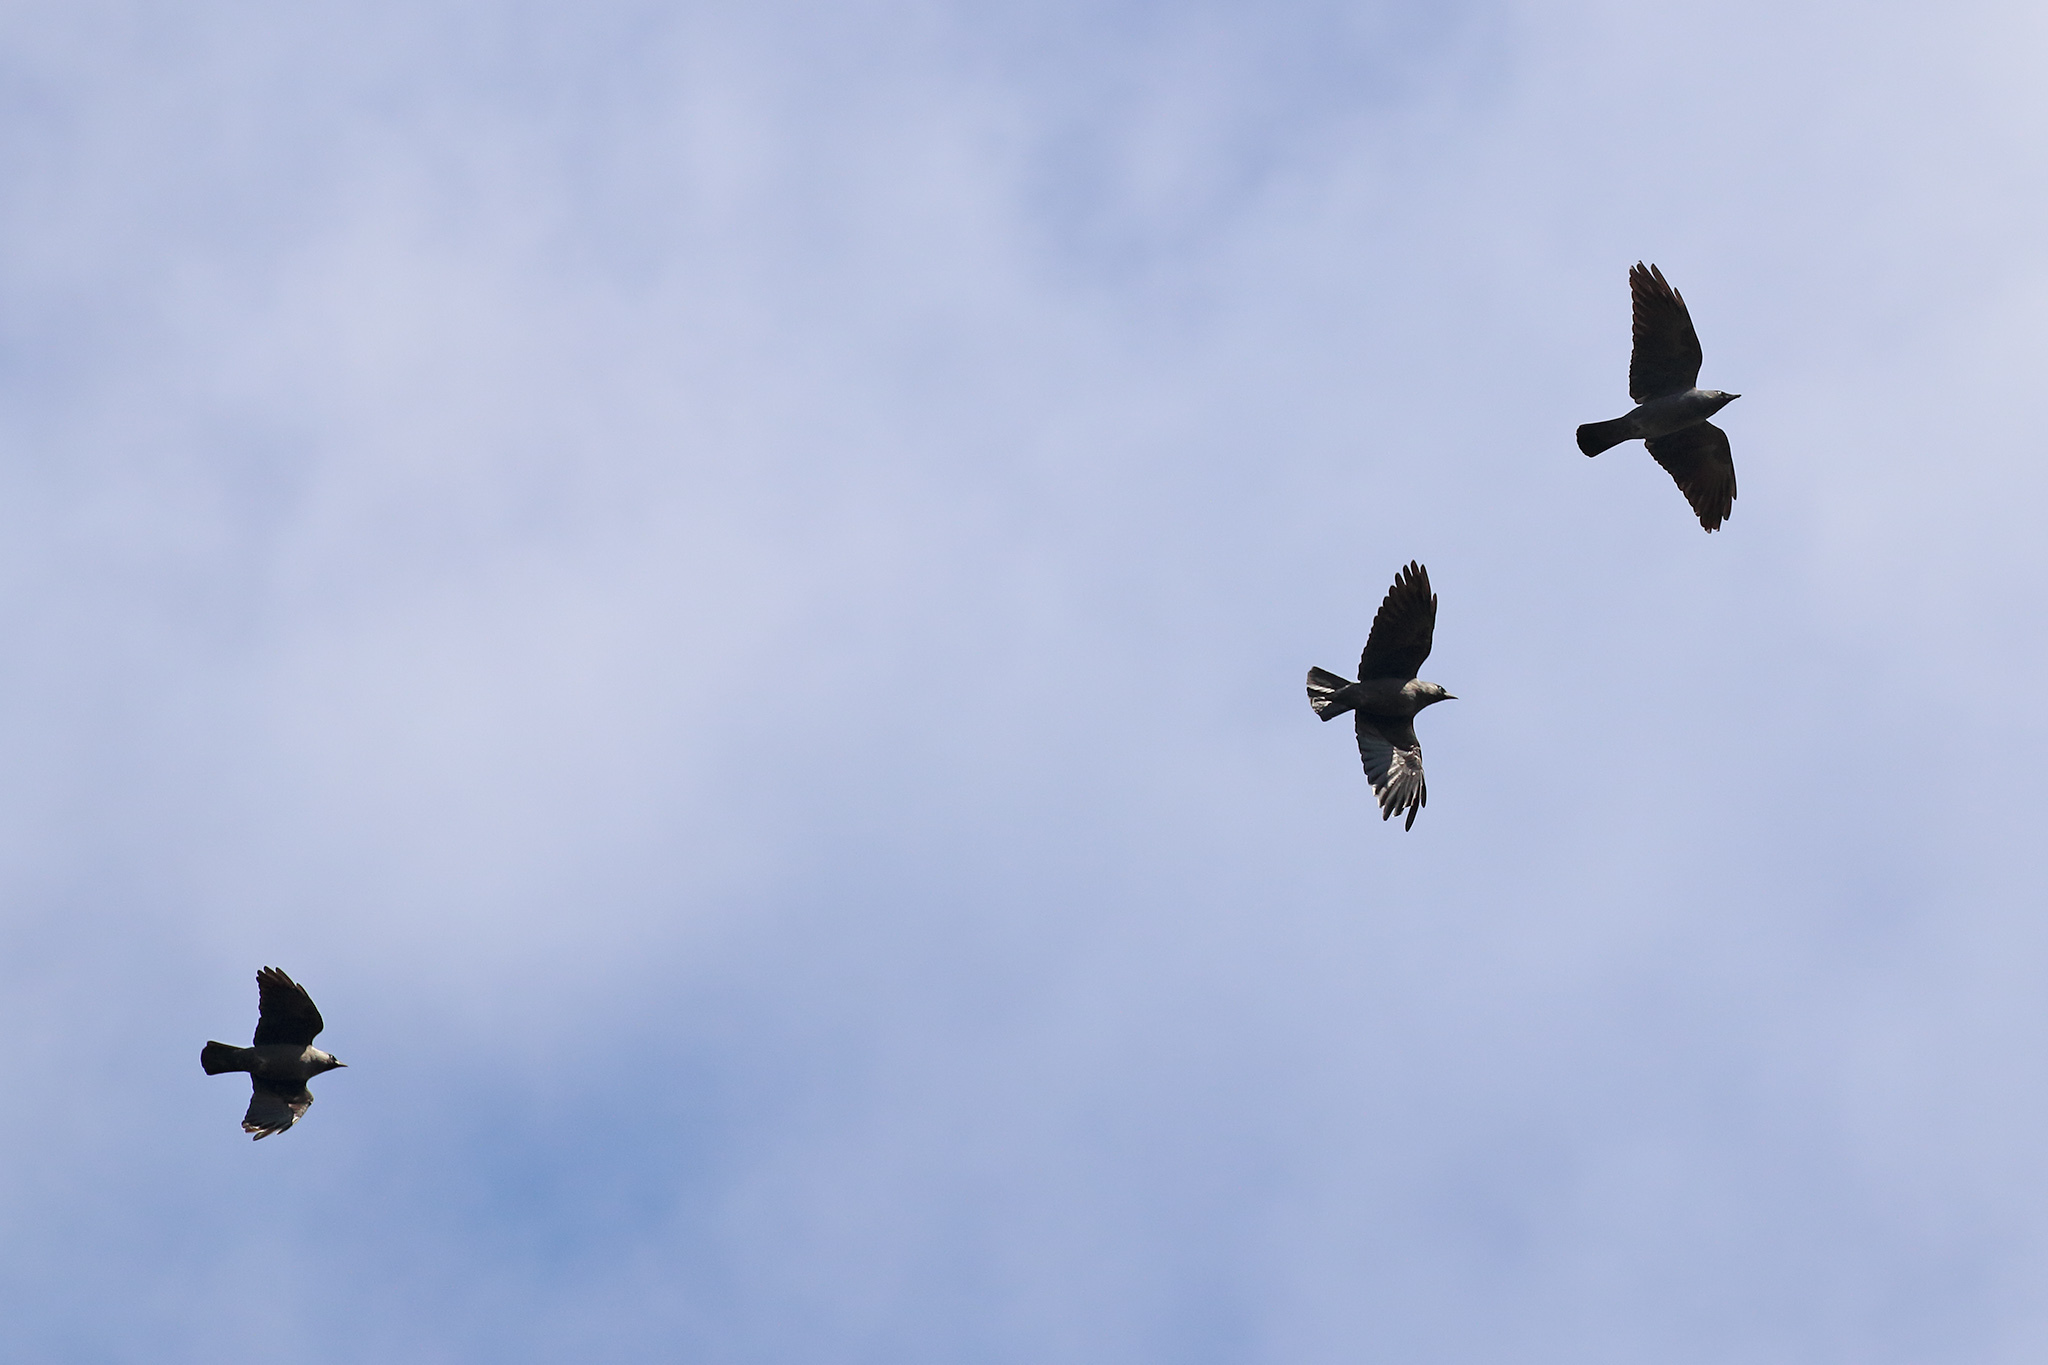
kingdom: Animalia
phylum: Chordata
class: Aves
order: Passeriformes
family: Corvidae
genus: Coloeus
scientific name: Coloeus monedula
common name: Western jackdaw
